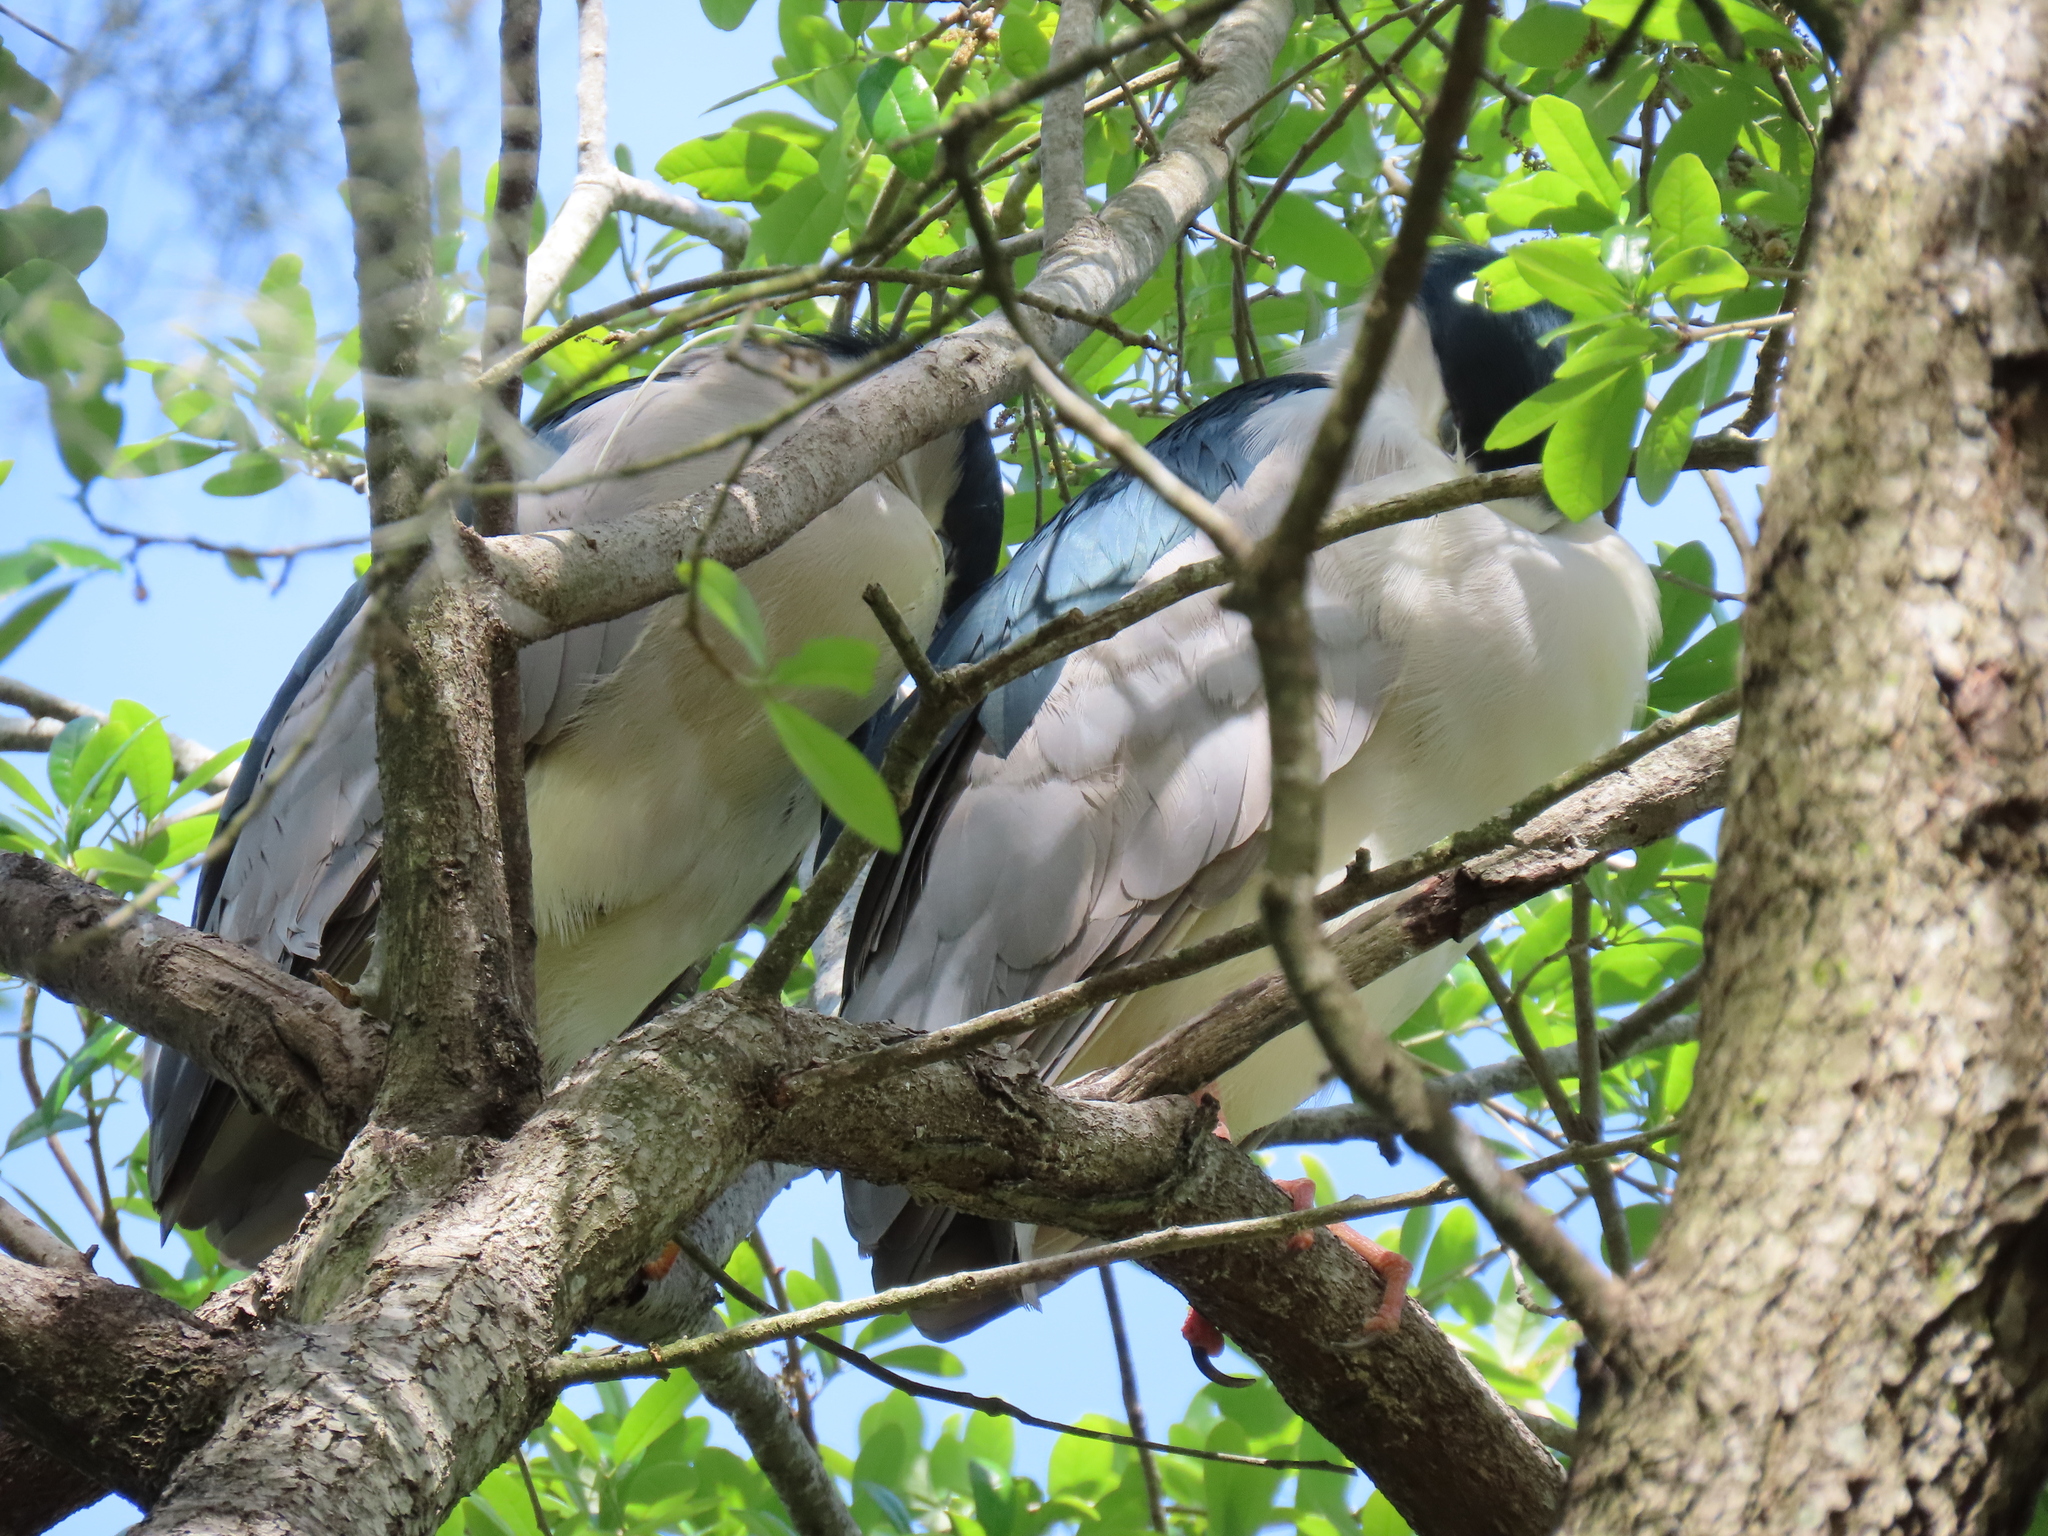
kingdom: Animalia
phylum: Chordata
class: Aves
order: Pelecaniformes
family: Ardeidae
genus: Nycticorax
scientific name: Nycticorax nycticorax
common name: Black-crowned night heron
